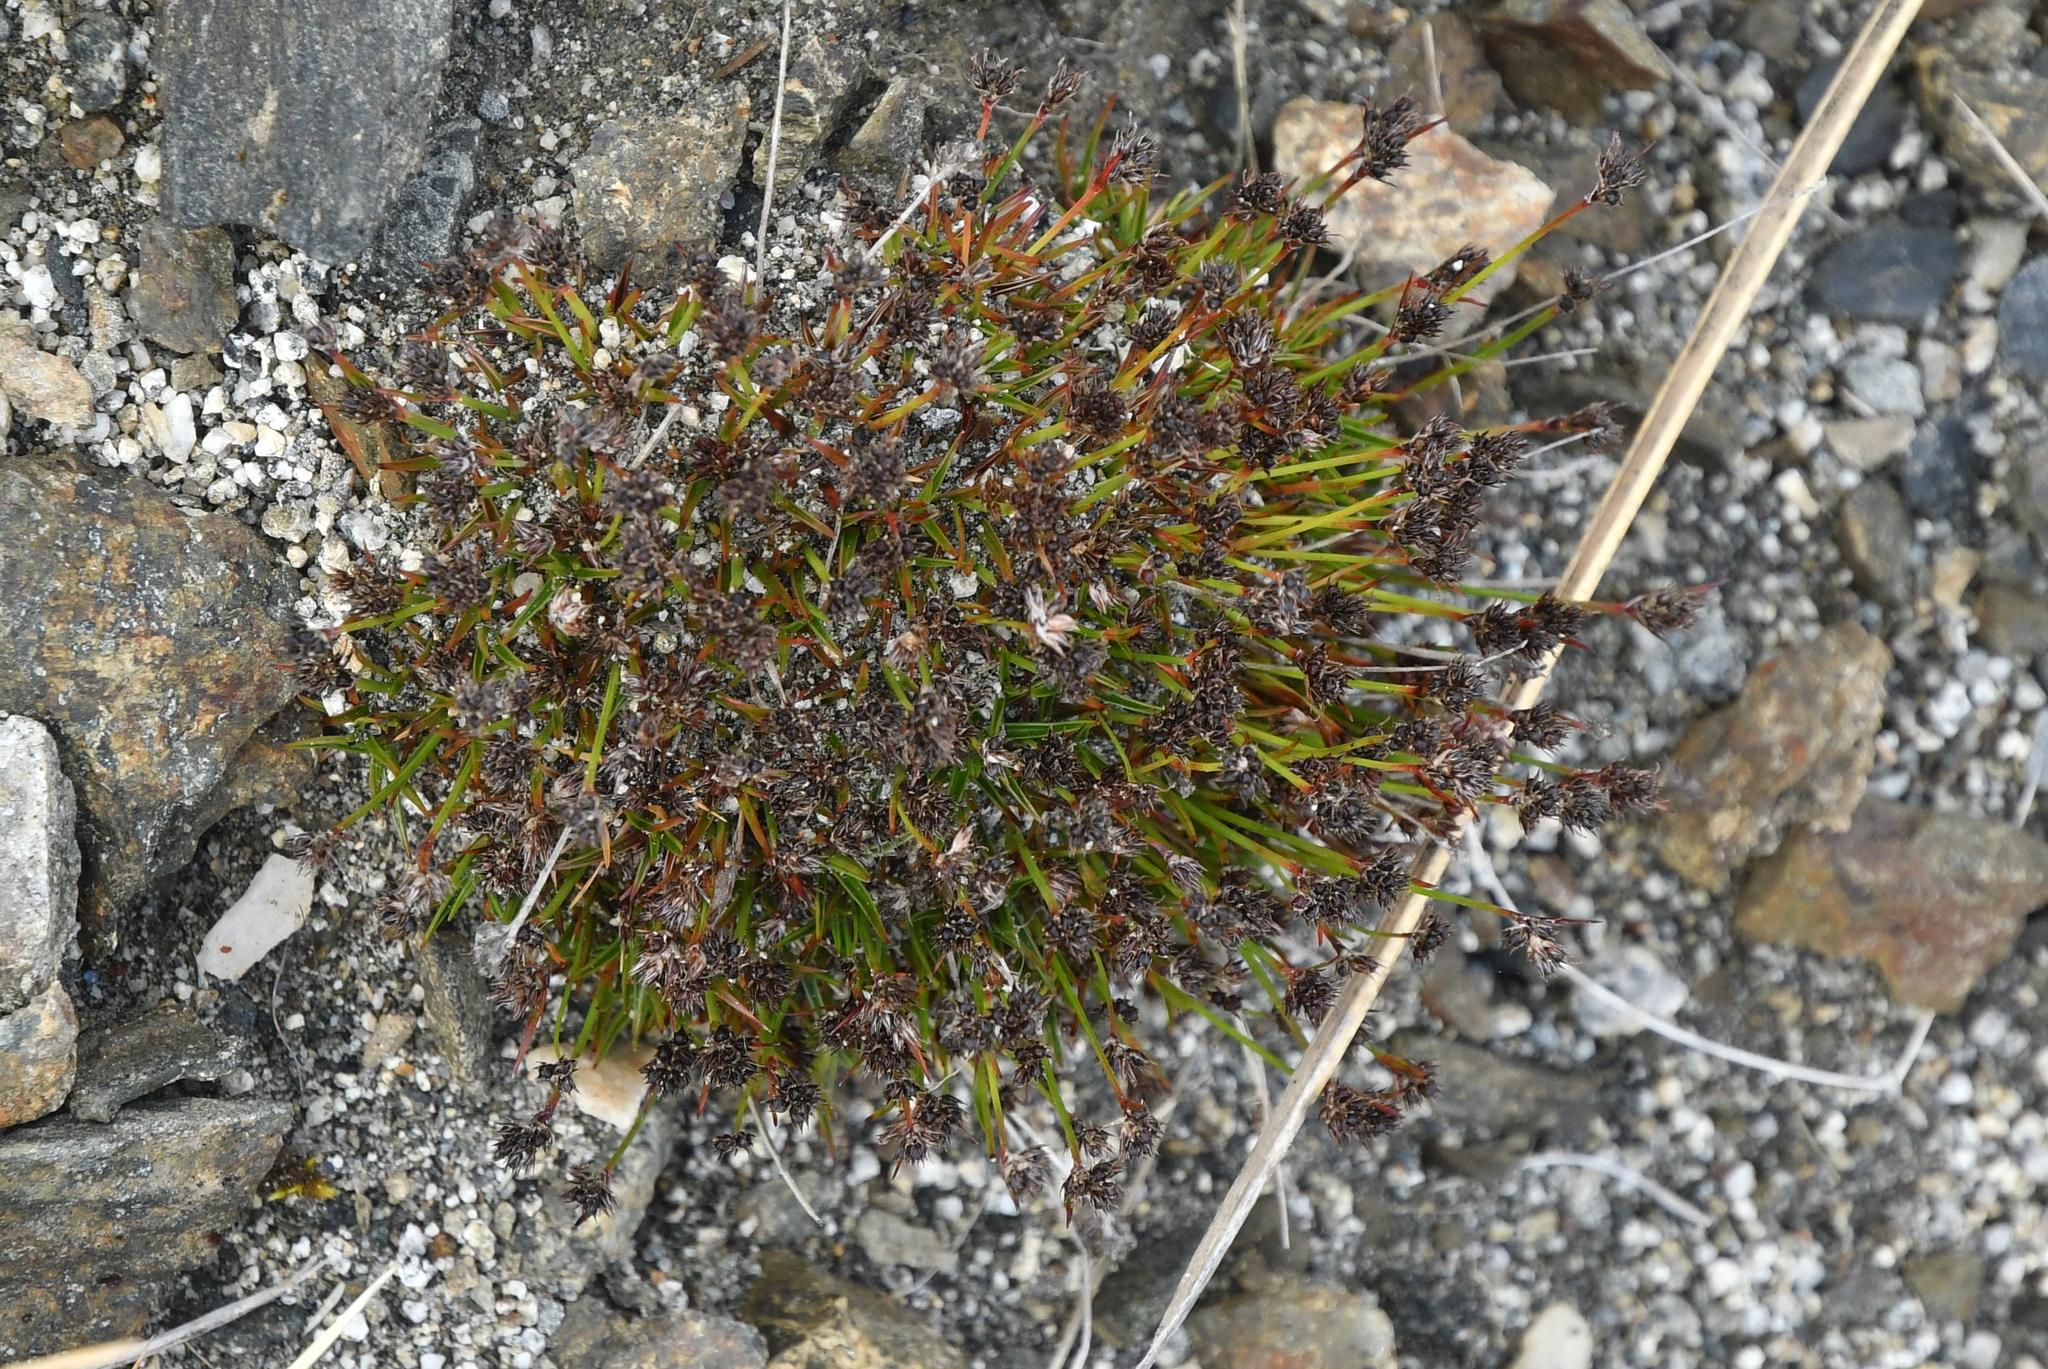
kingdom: Plantae
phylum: Tracheophyta
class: Liliopsida
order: Poales
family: Juncaceae
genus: Luzula
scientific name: Luzula pumila
